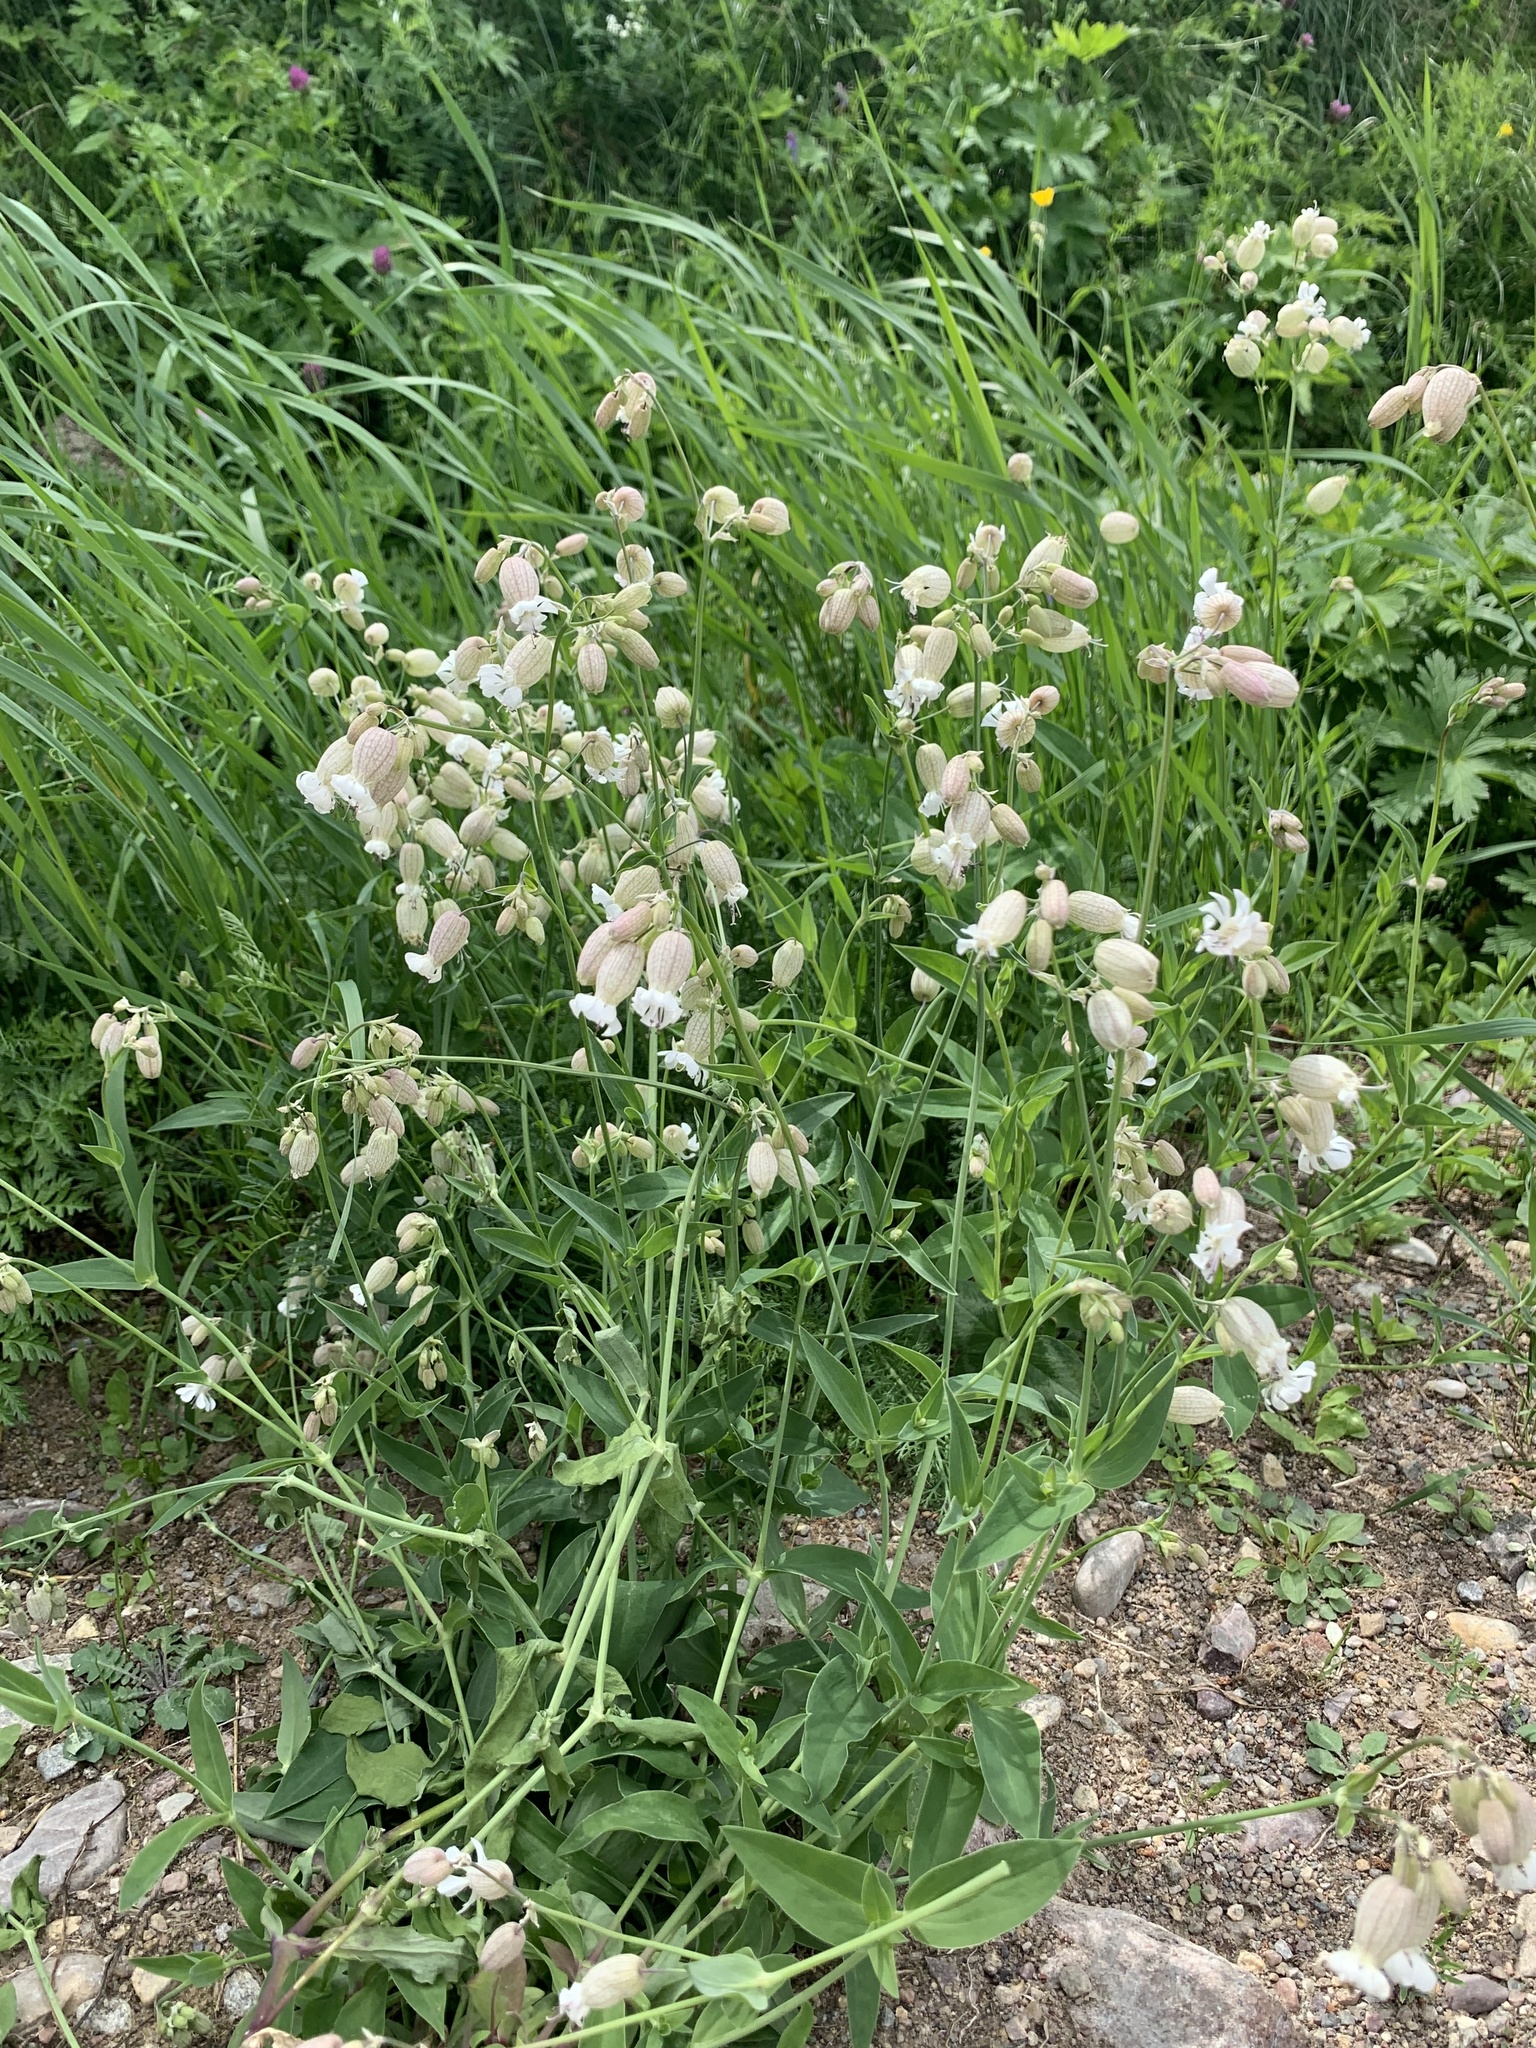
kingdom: Plantae
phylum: Tracheophyta
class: Magnoliopsida
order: Caryophyllales
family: Caryophyllaceae
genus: Silene
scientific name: Silene vulgaris
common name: Bladder campion
